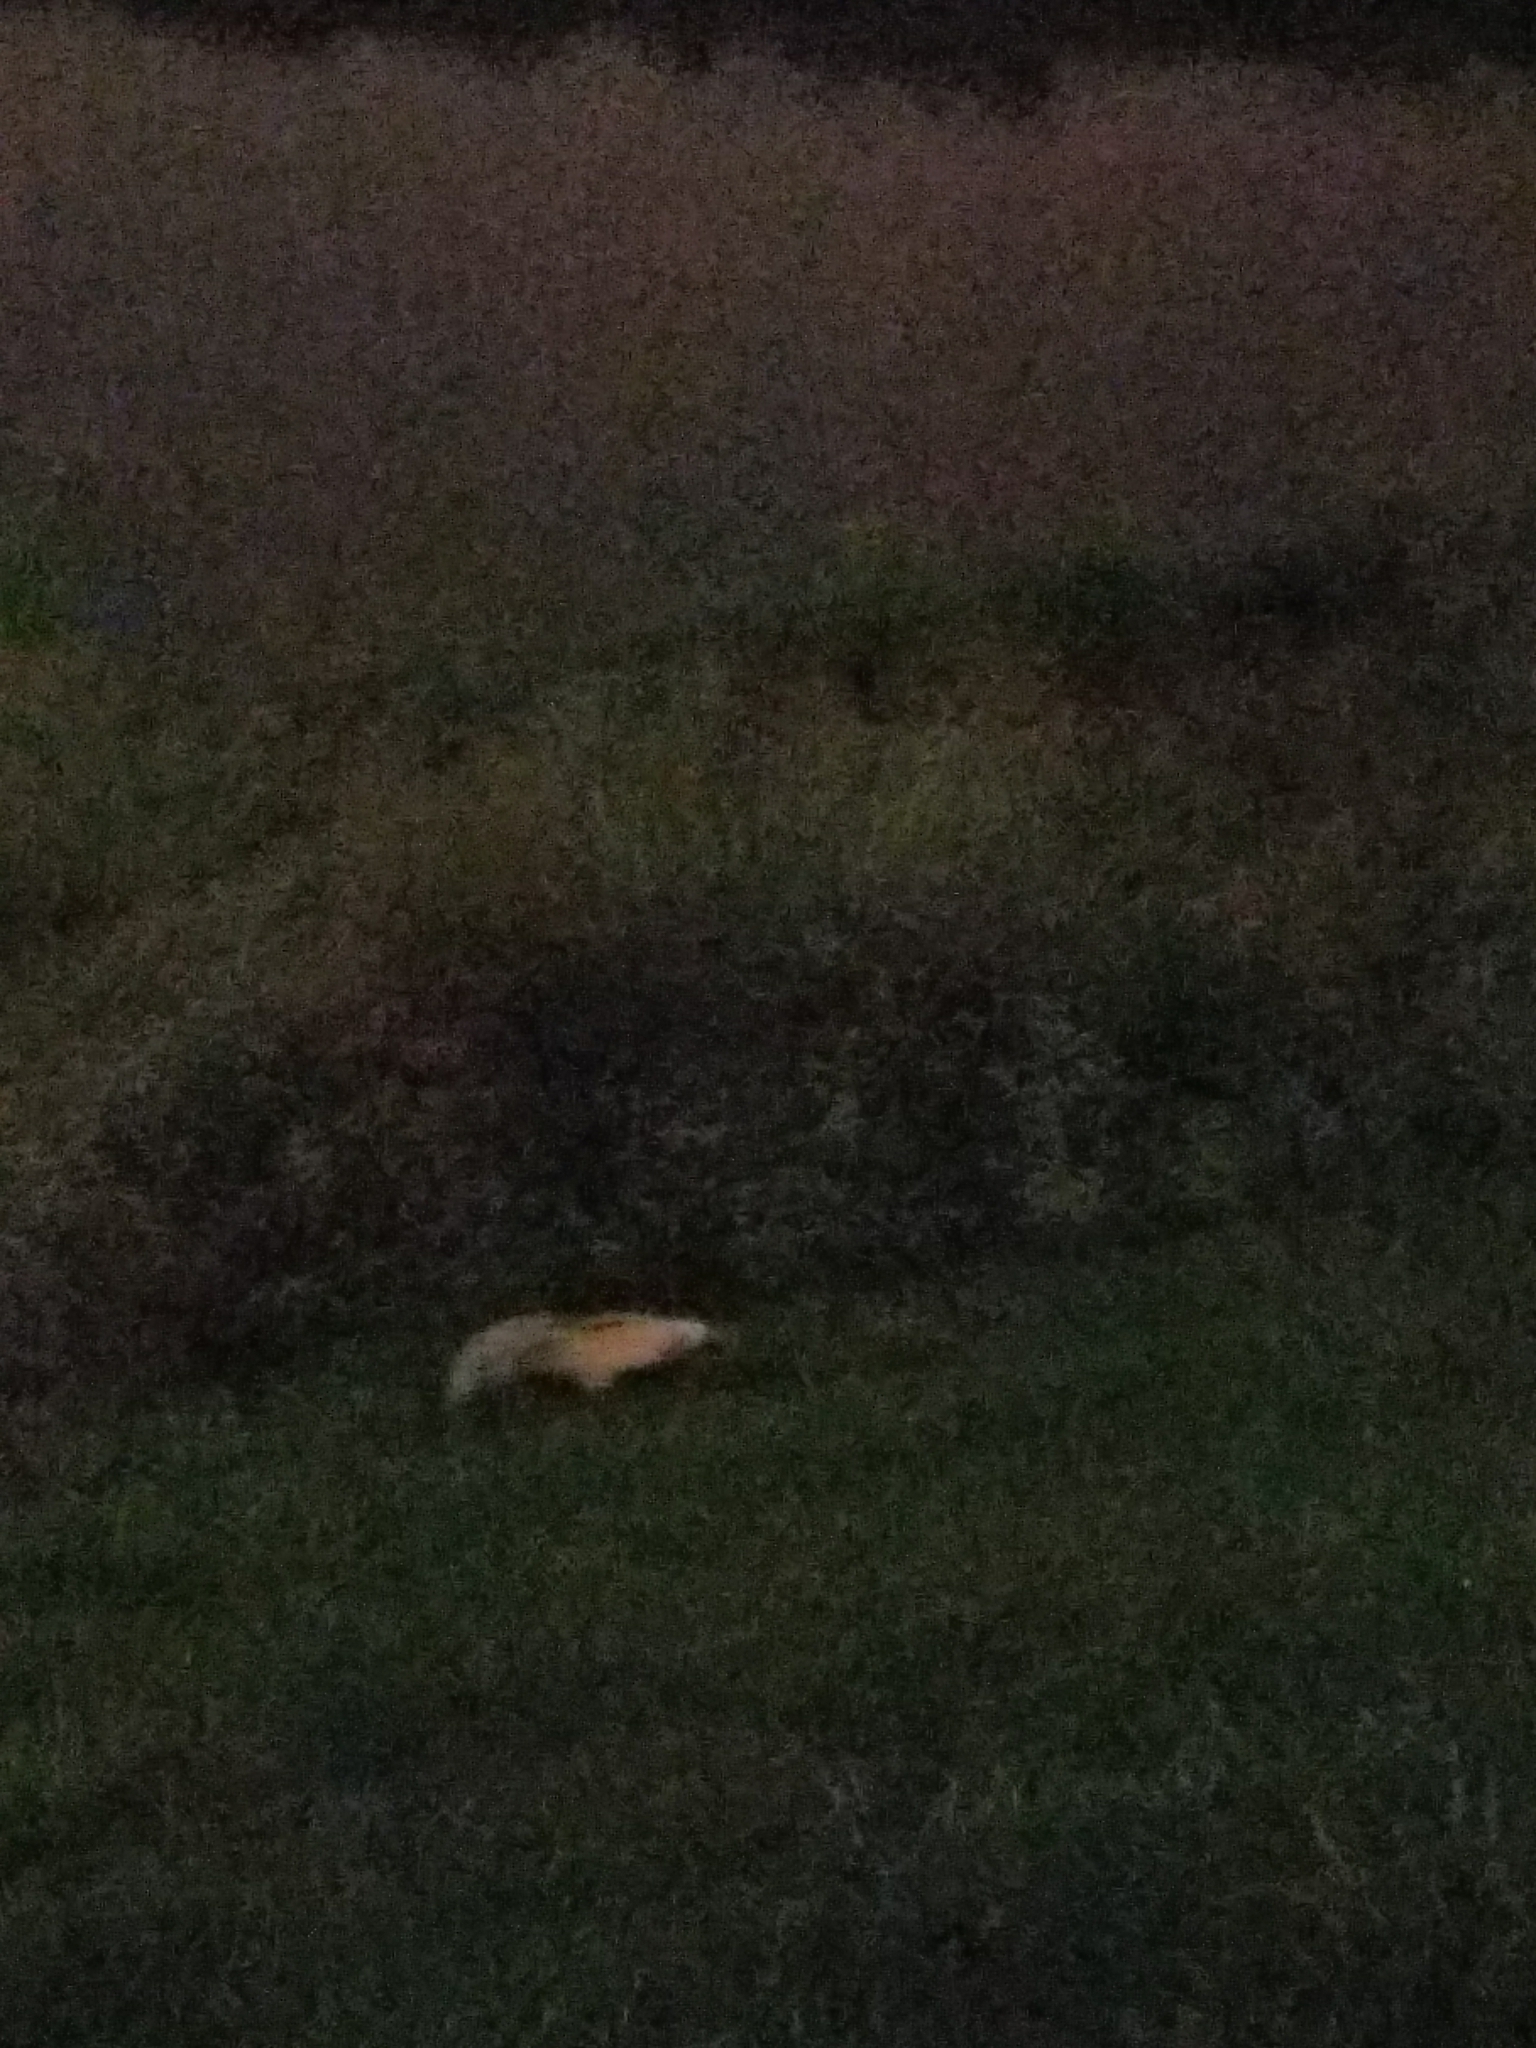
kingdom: Animalia
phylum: Chordata
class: Mammalia
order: Carnivora
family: Mephitidae
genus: Mephitis
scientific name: Mephitis mephitis
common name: Striped skunk
